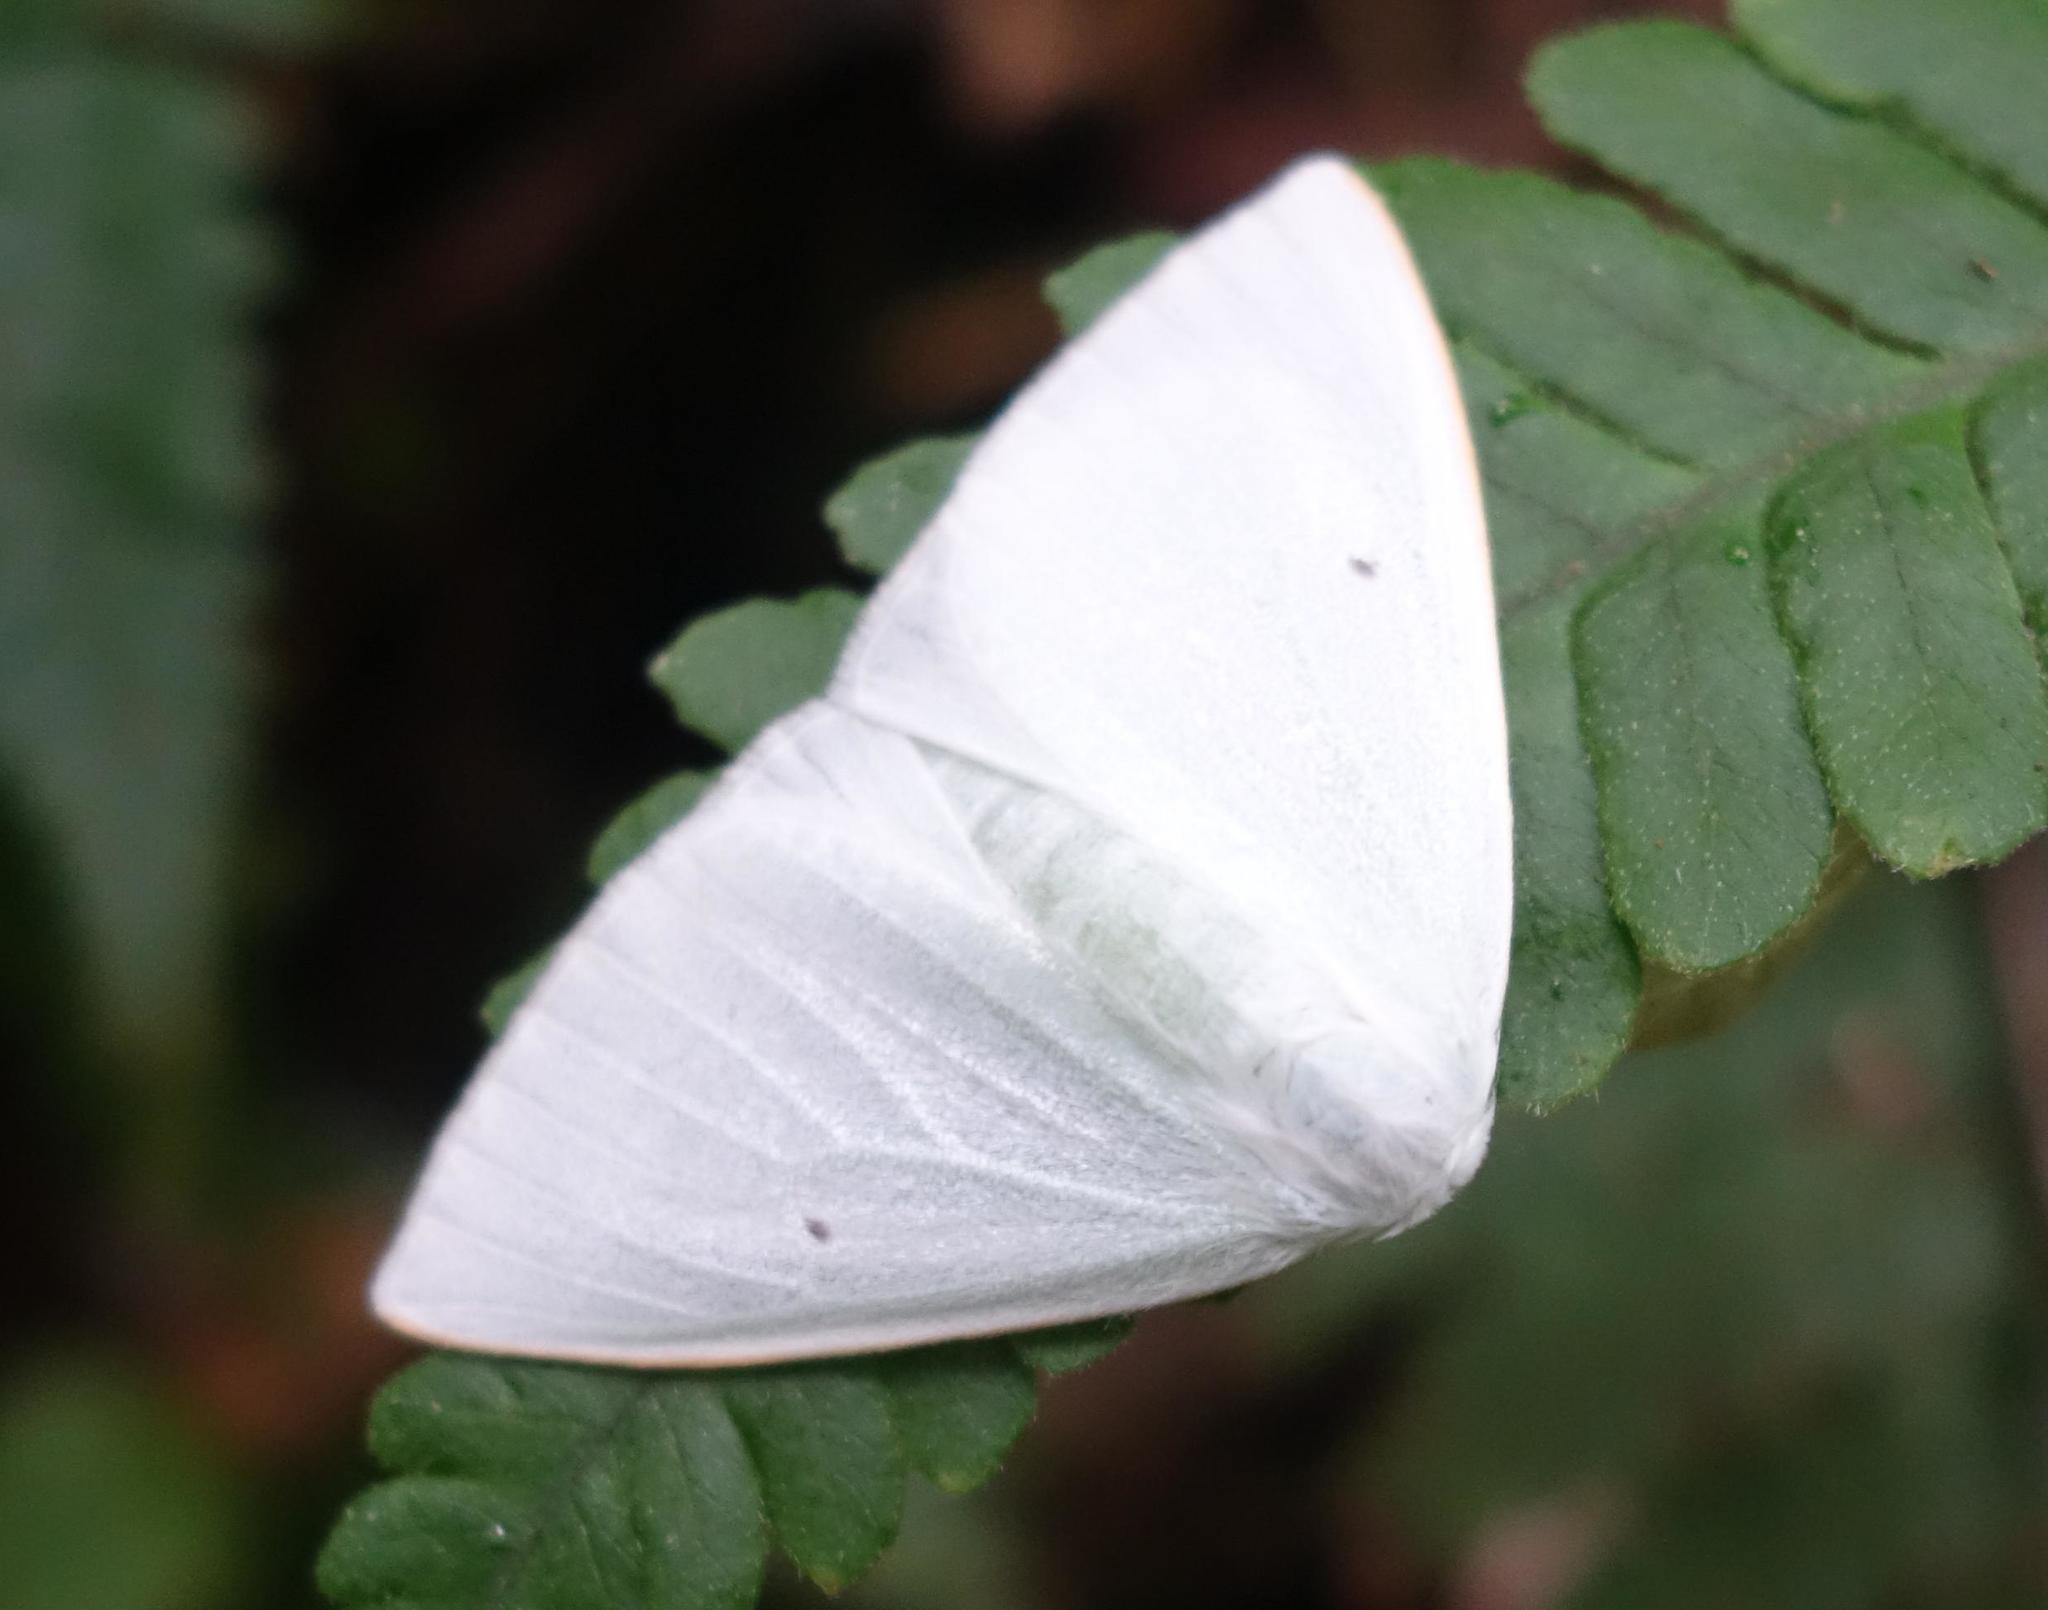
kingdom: Animalia
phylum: Arthropoda
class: Insecta
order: Lepidoptera
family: Erebidae
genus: Arctornis
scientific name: Arctornis cygna
